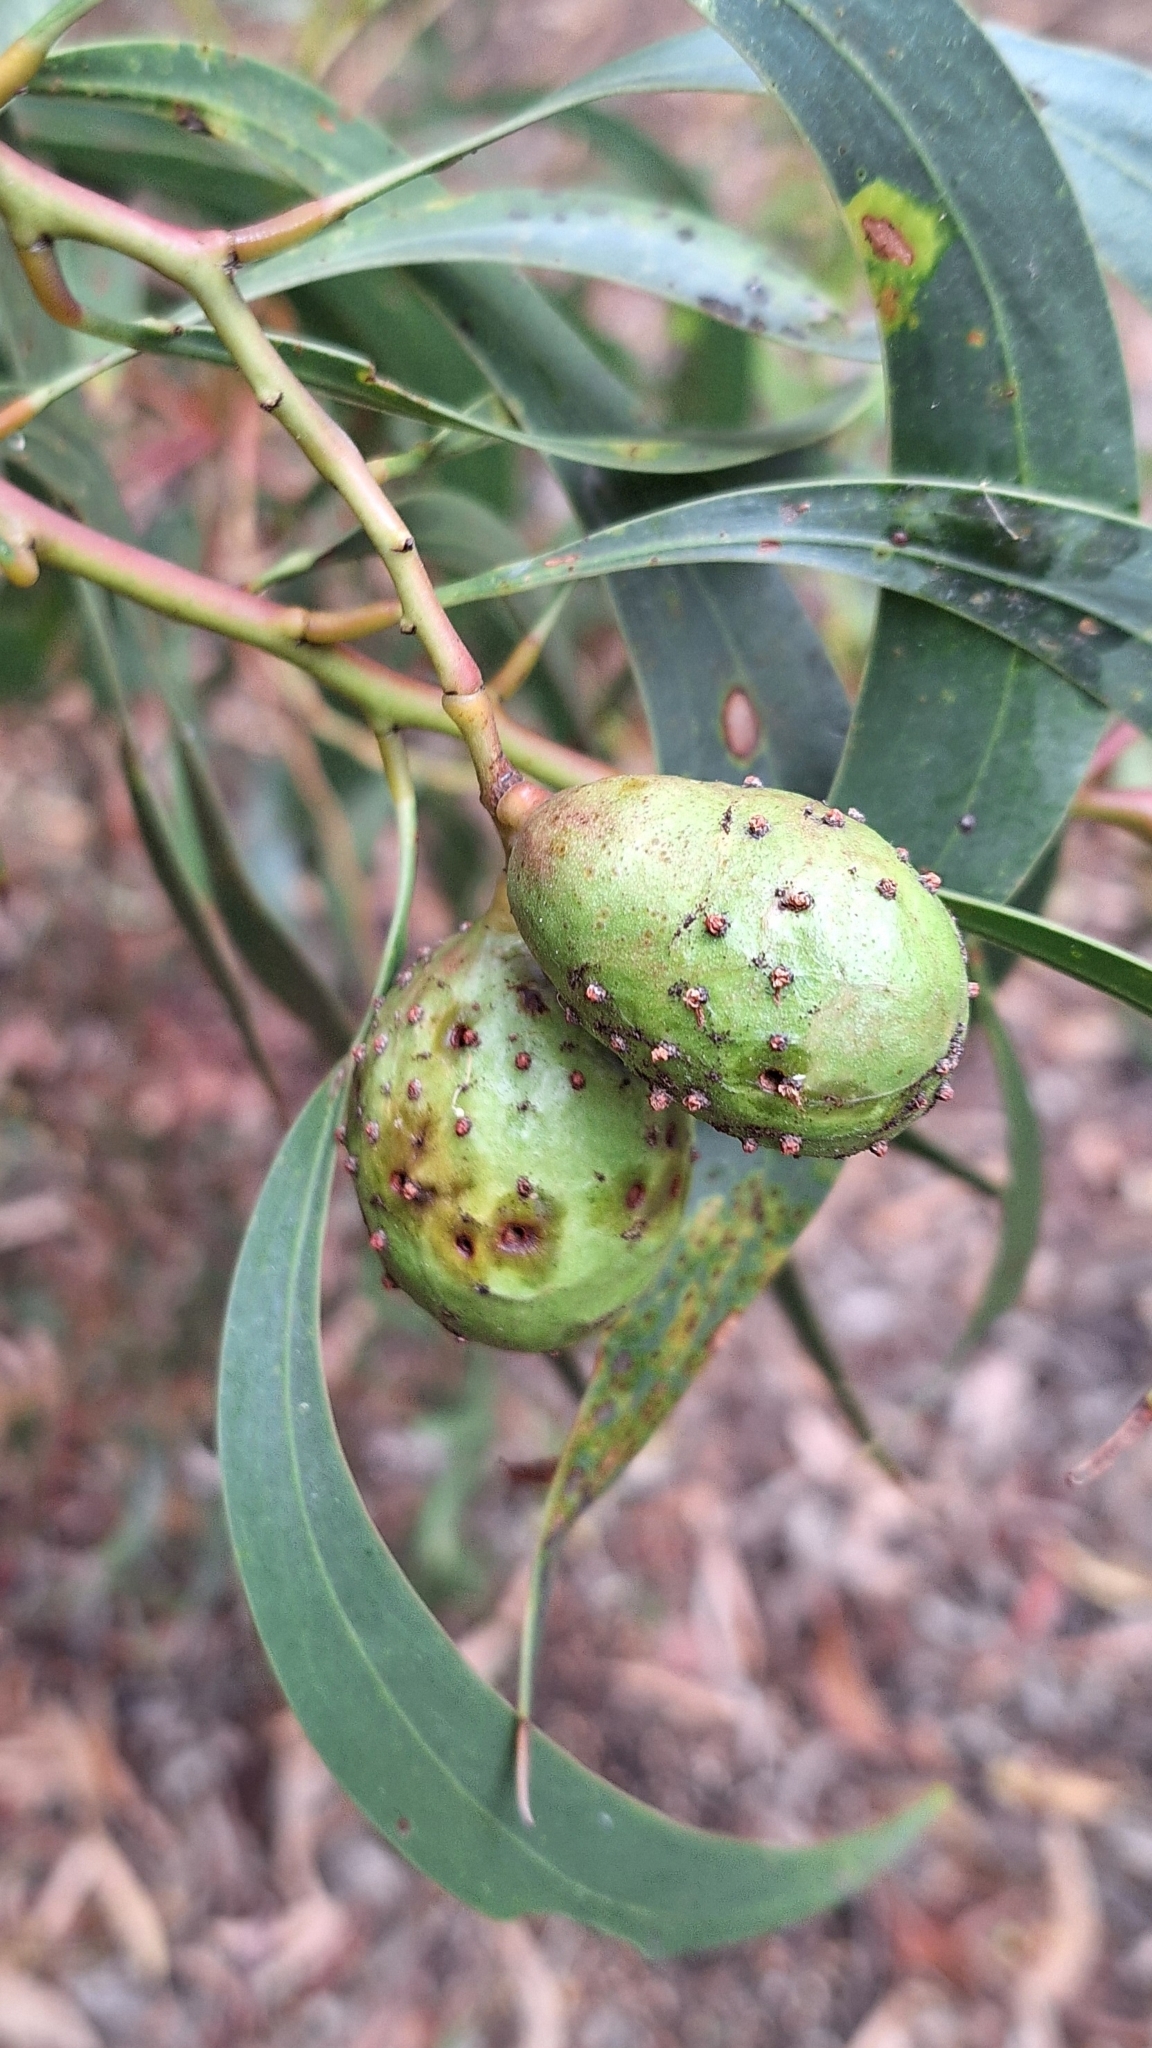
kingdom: Animalia
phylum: Arthropoda
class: Insecta
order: Hymenoptera
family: Pteromalidae
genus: Trichilogaster
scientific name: Trichilogaster signiventris
